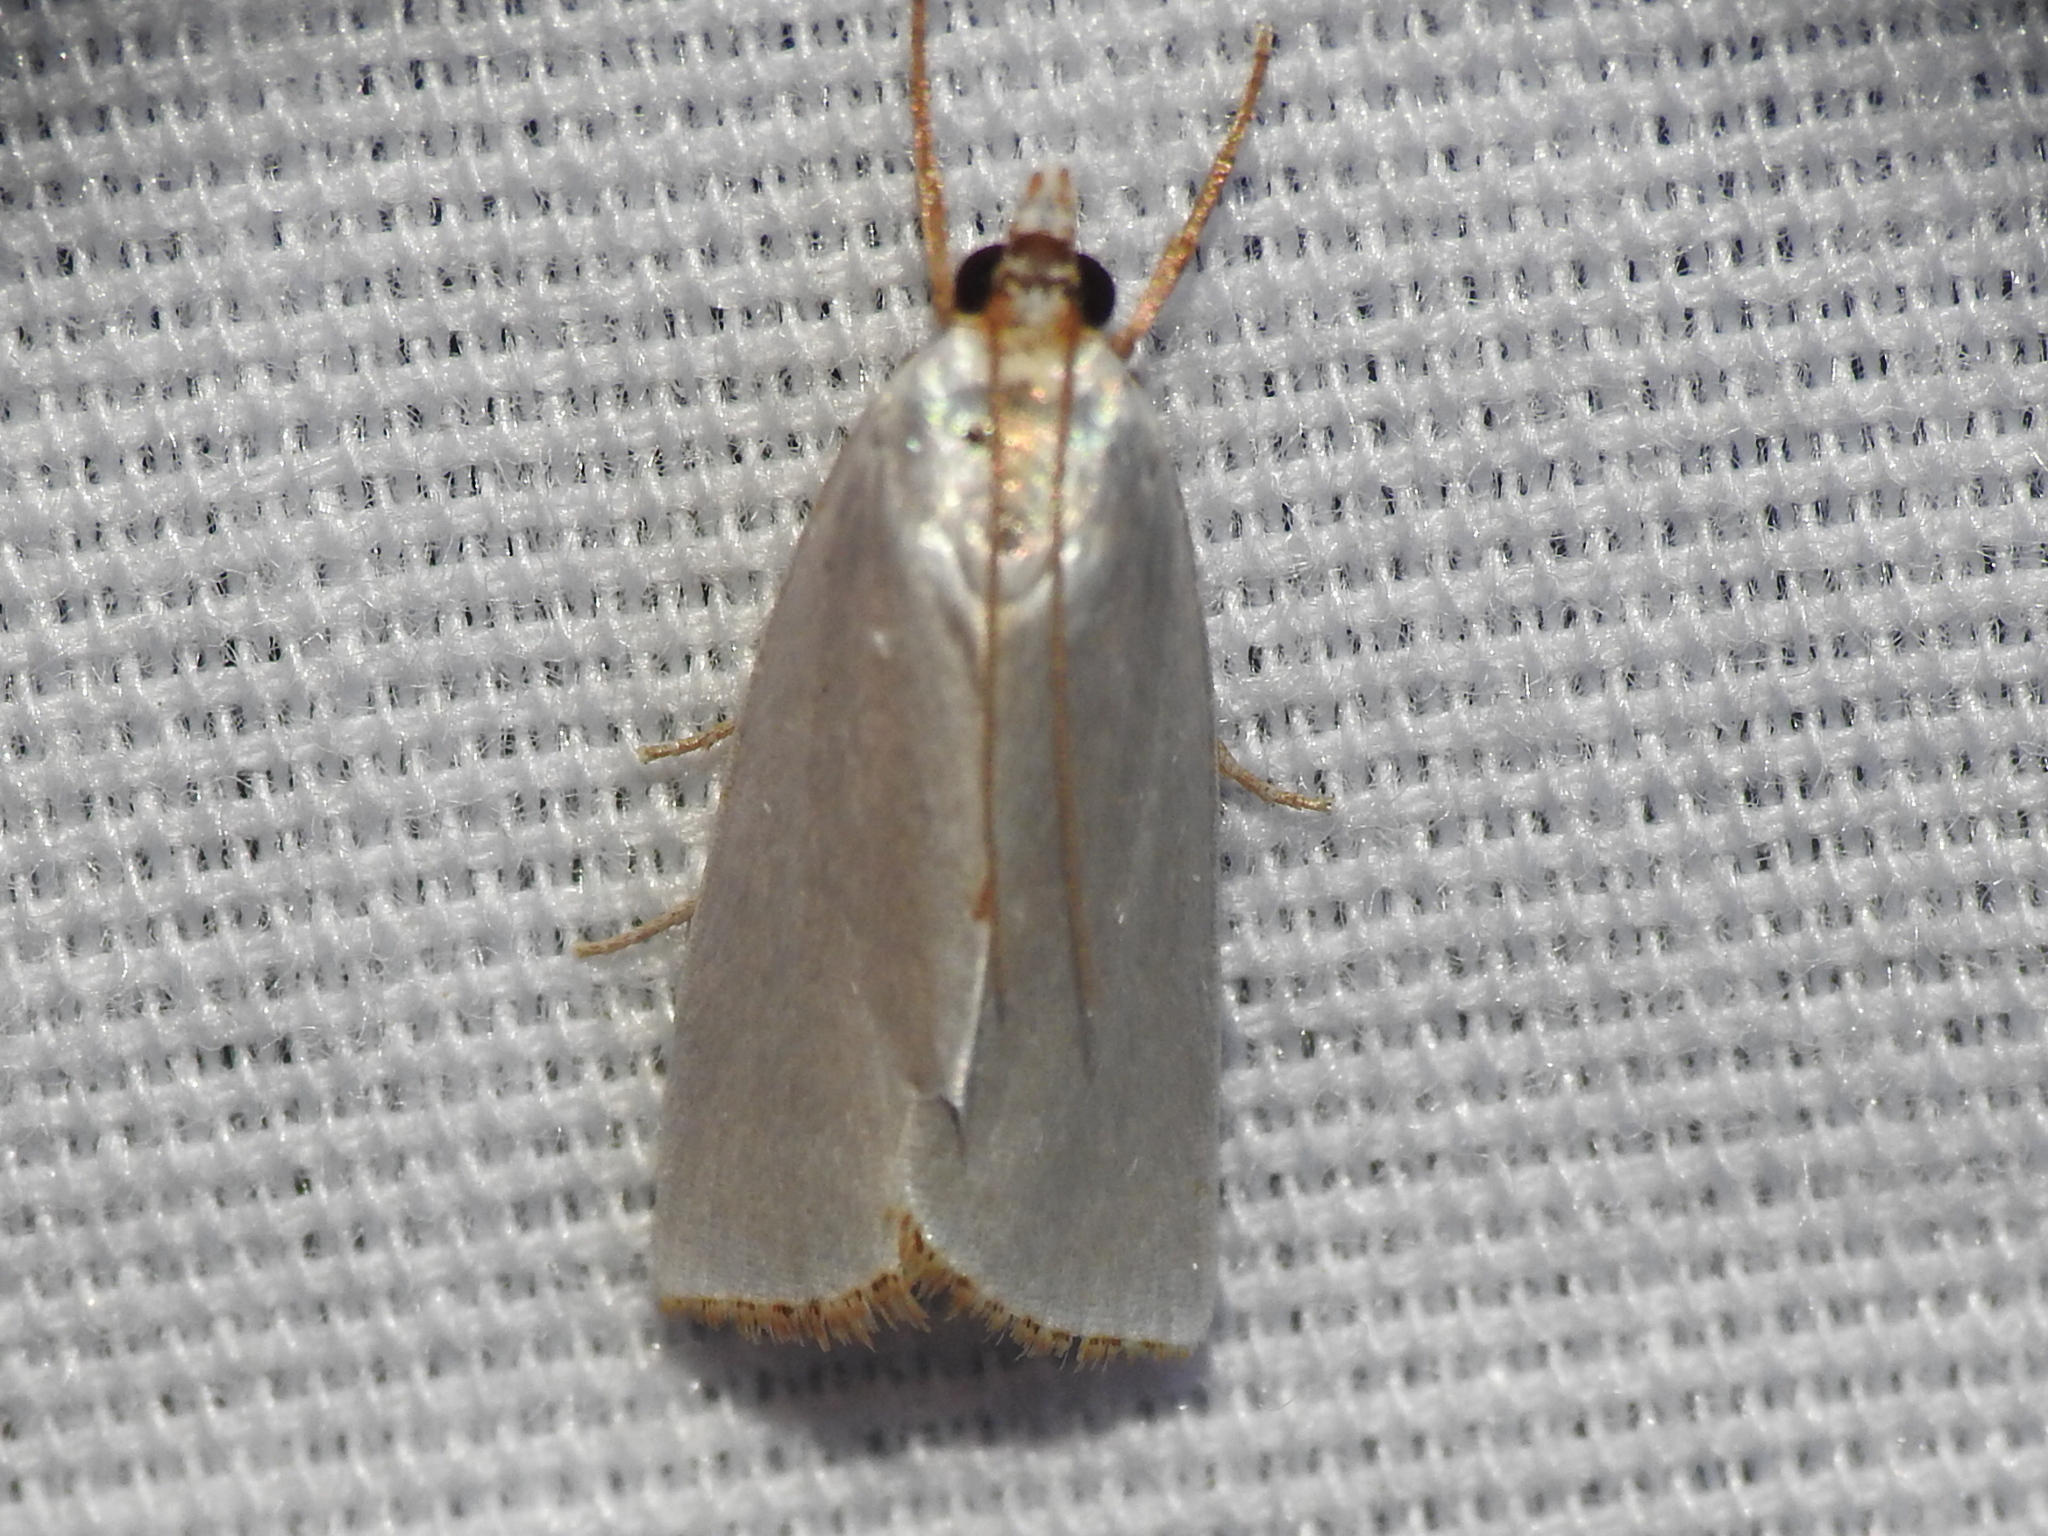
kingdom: Animalia
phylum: Arthropoda
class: Insecta
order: Lepidoptera
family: Crambidae
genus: Argyria
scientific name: Argyria nivalis
